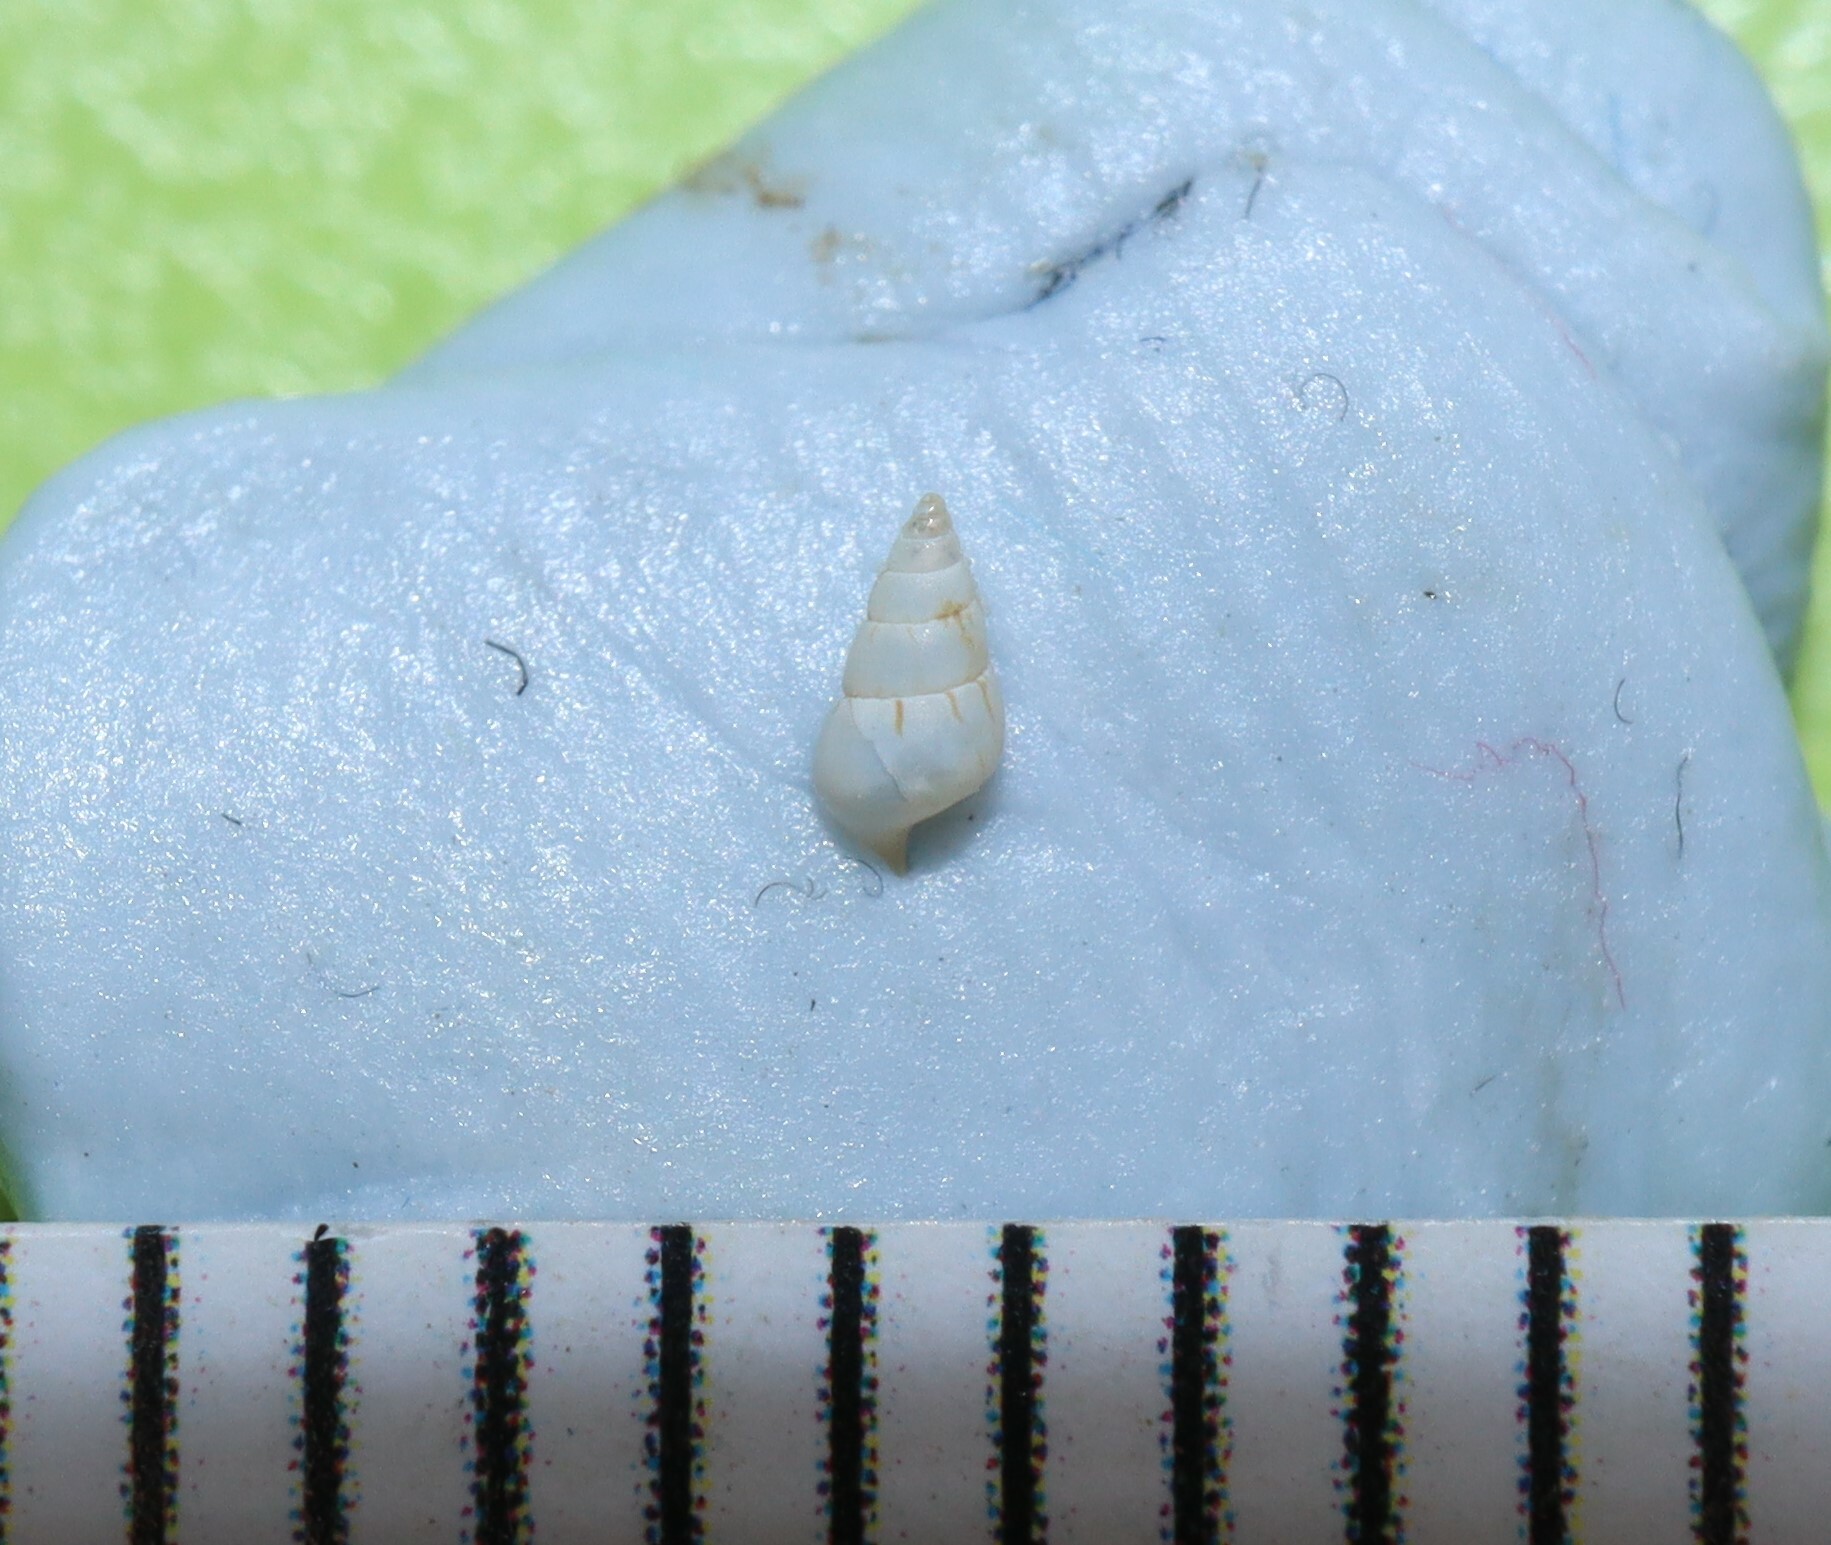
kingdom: Animalia
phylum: Mollusca
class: Gastropoda
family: Litiopidae
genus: Diffalaba
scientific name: Diffalaba opiniosa
